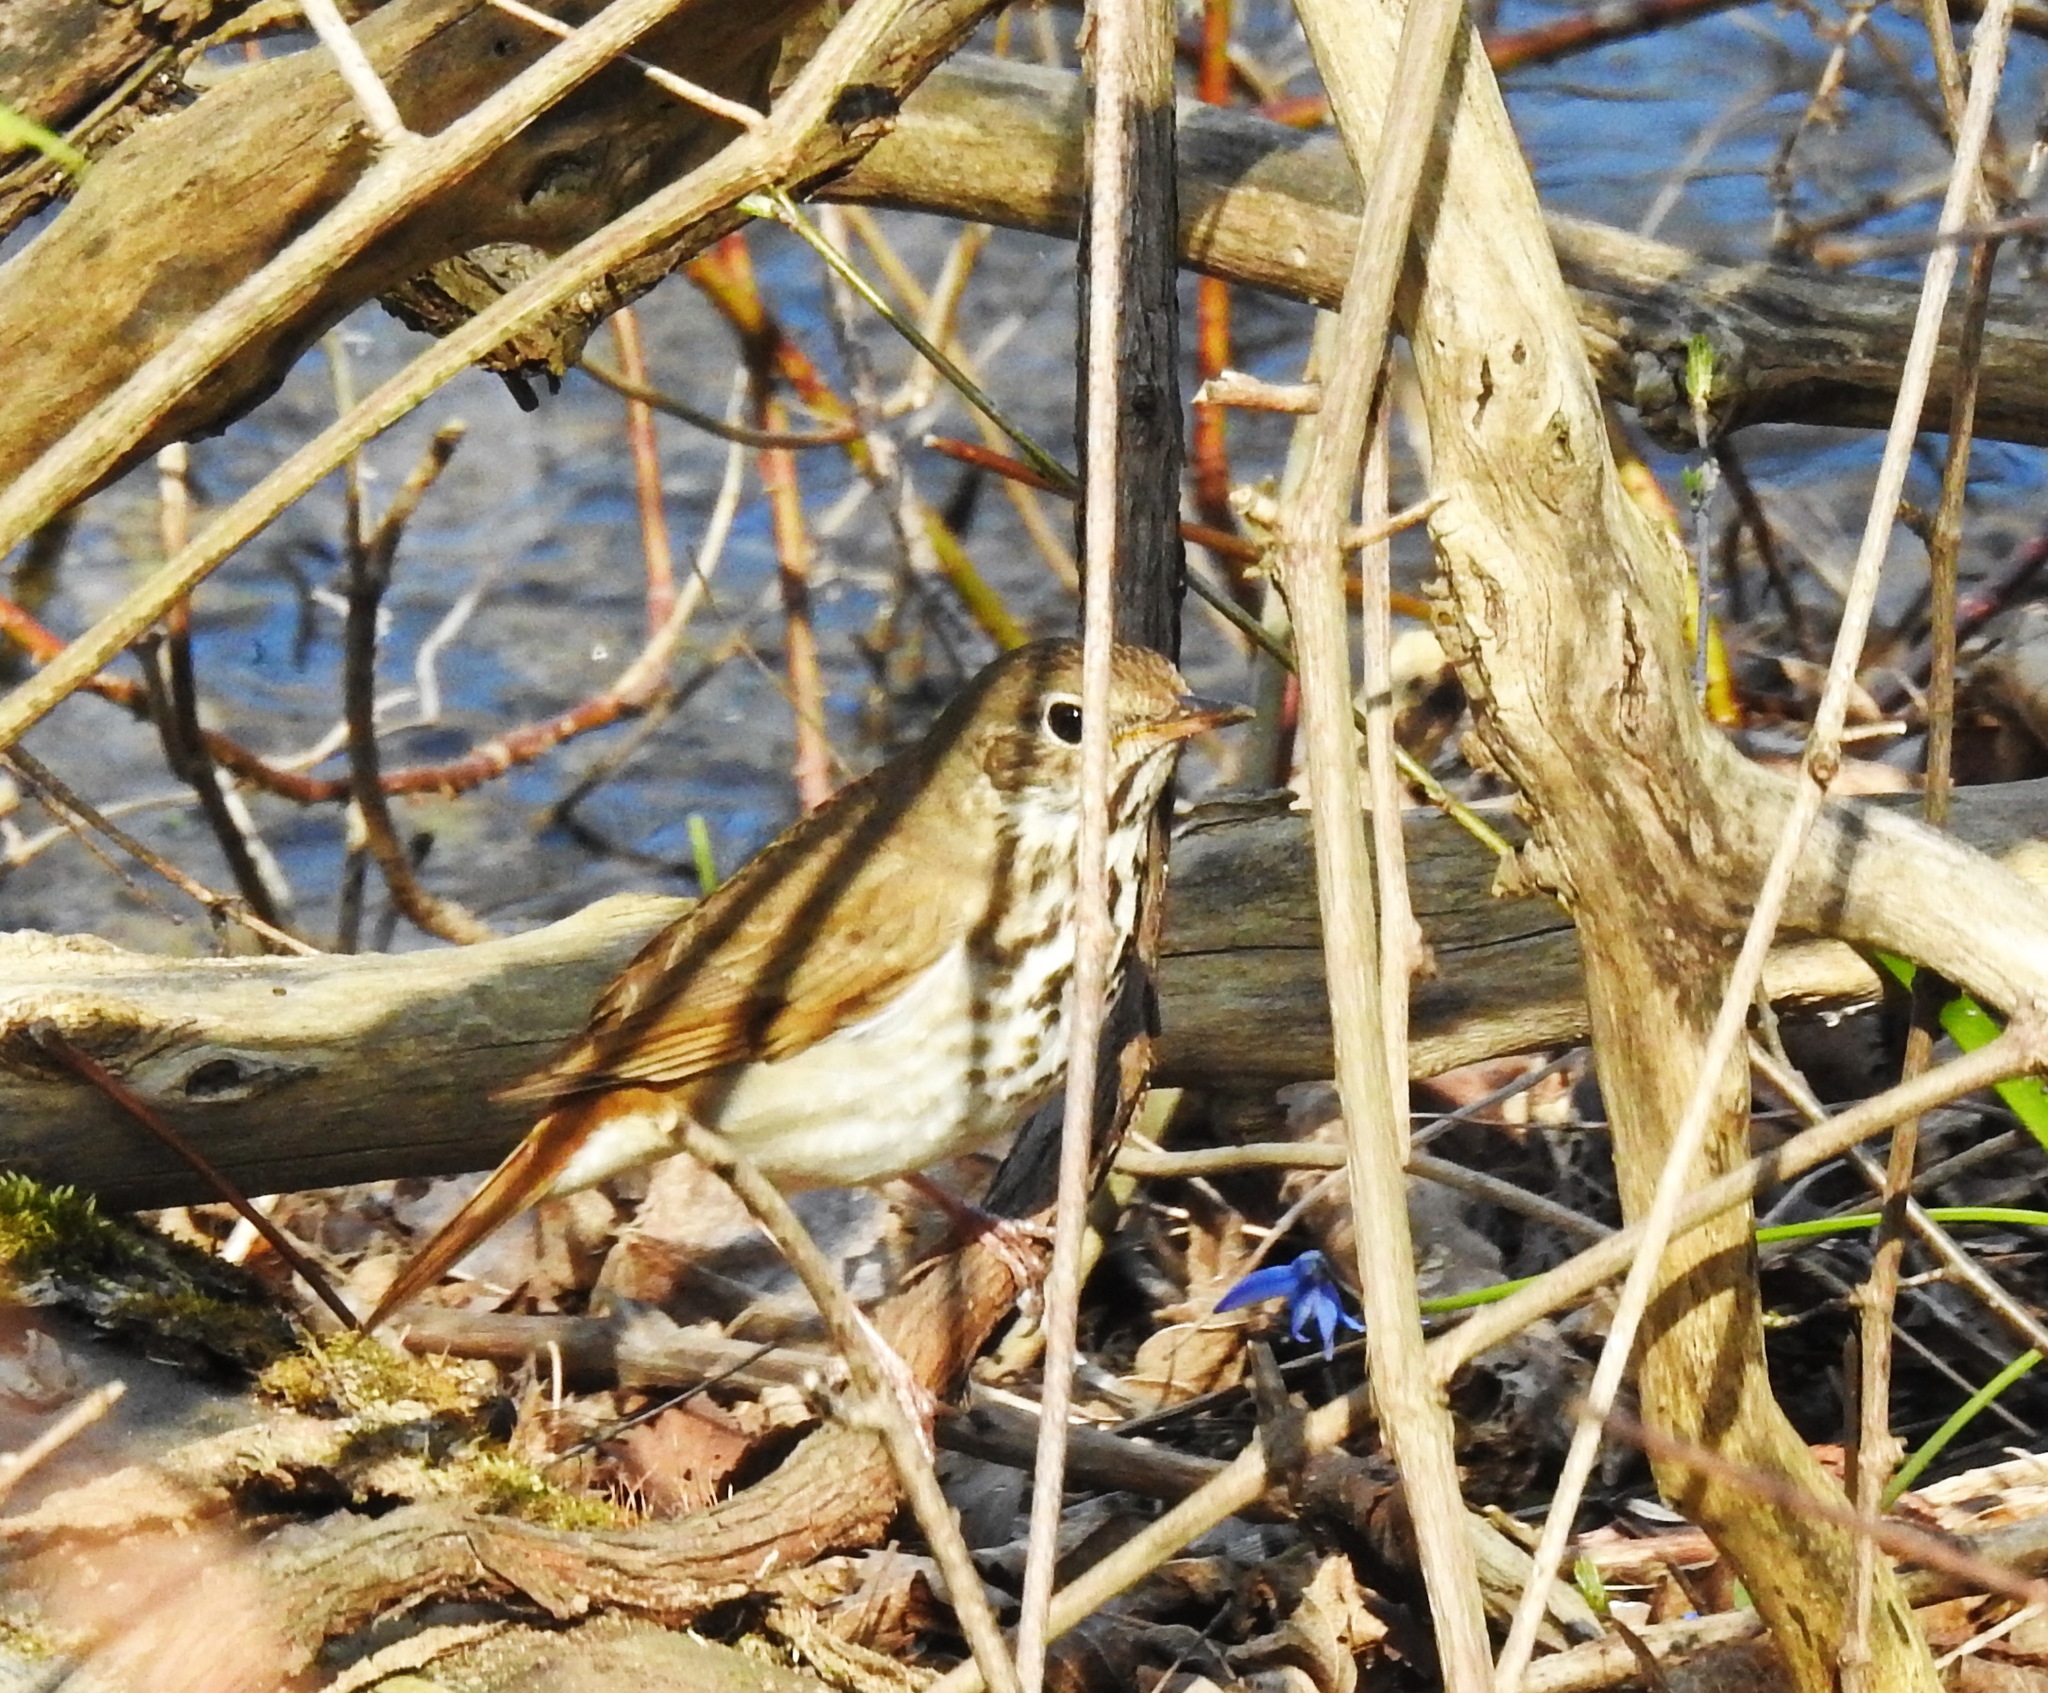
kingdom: Animalia
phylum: Chordata
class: Aves
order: Passeriformes
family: Turdidae
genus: Catharus
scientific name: Catharus guttatus
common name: Hermit thrush
